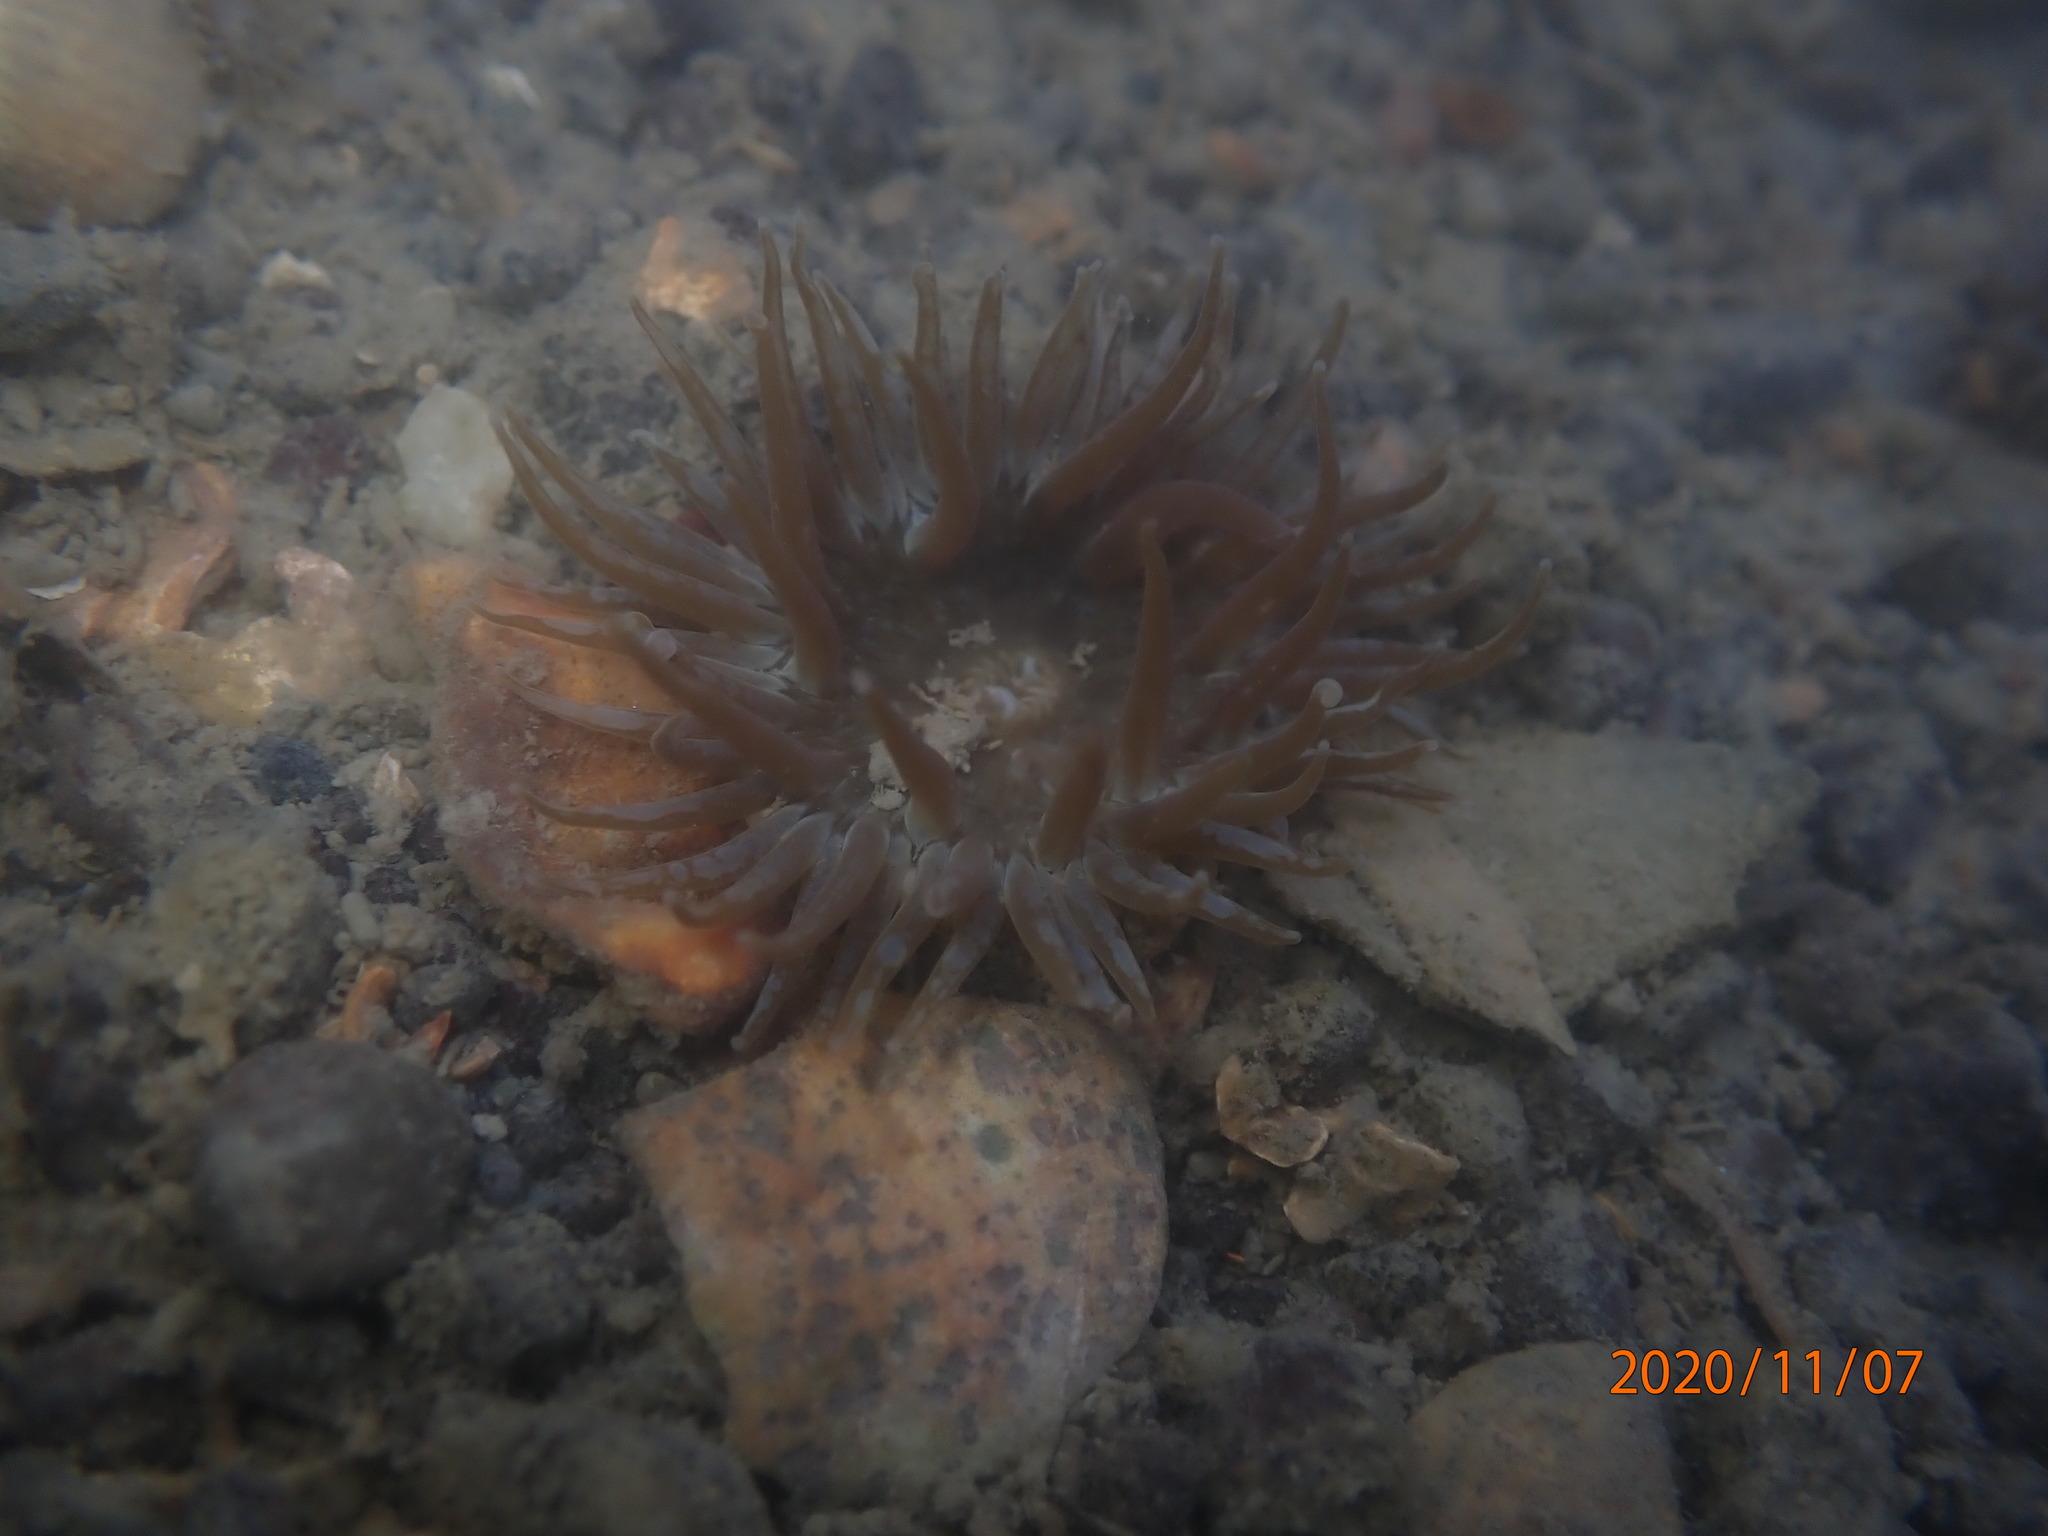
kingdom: Animalia
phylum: Cnidaria
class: Anthozoa
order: Actiniaria
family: Actiniidae
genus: Anthopleura
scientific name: Anthopleura hermaphroditica
